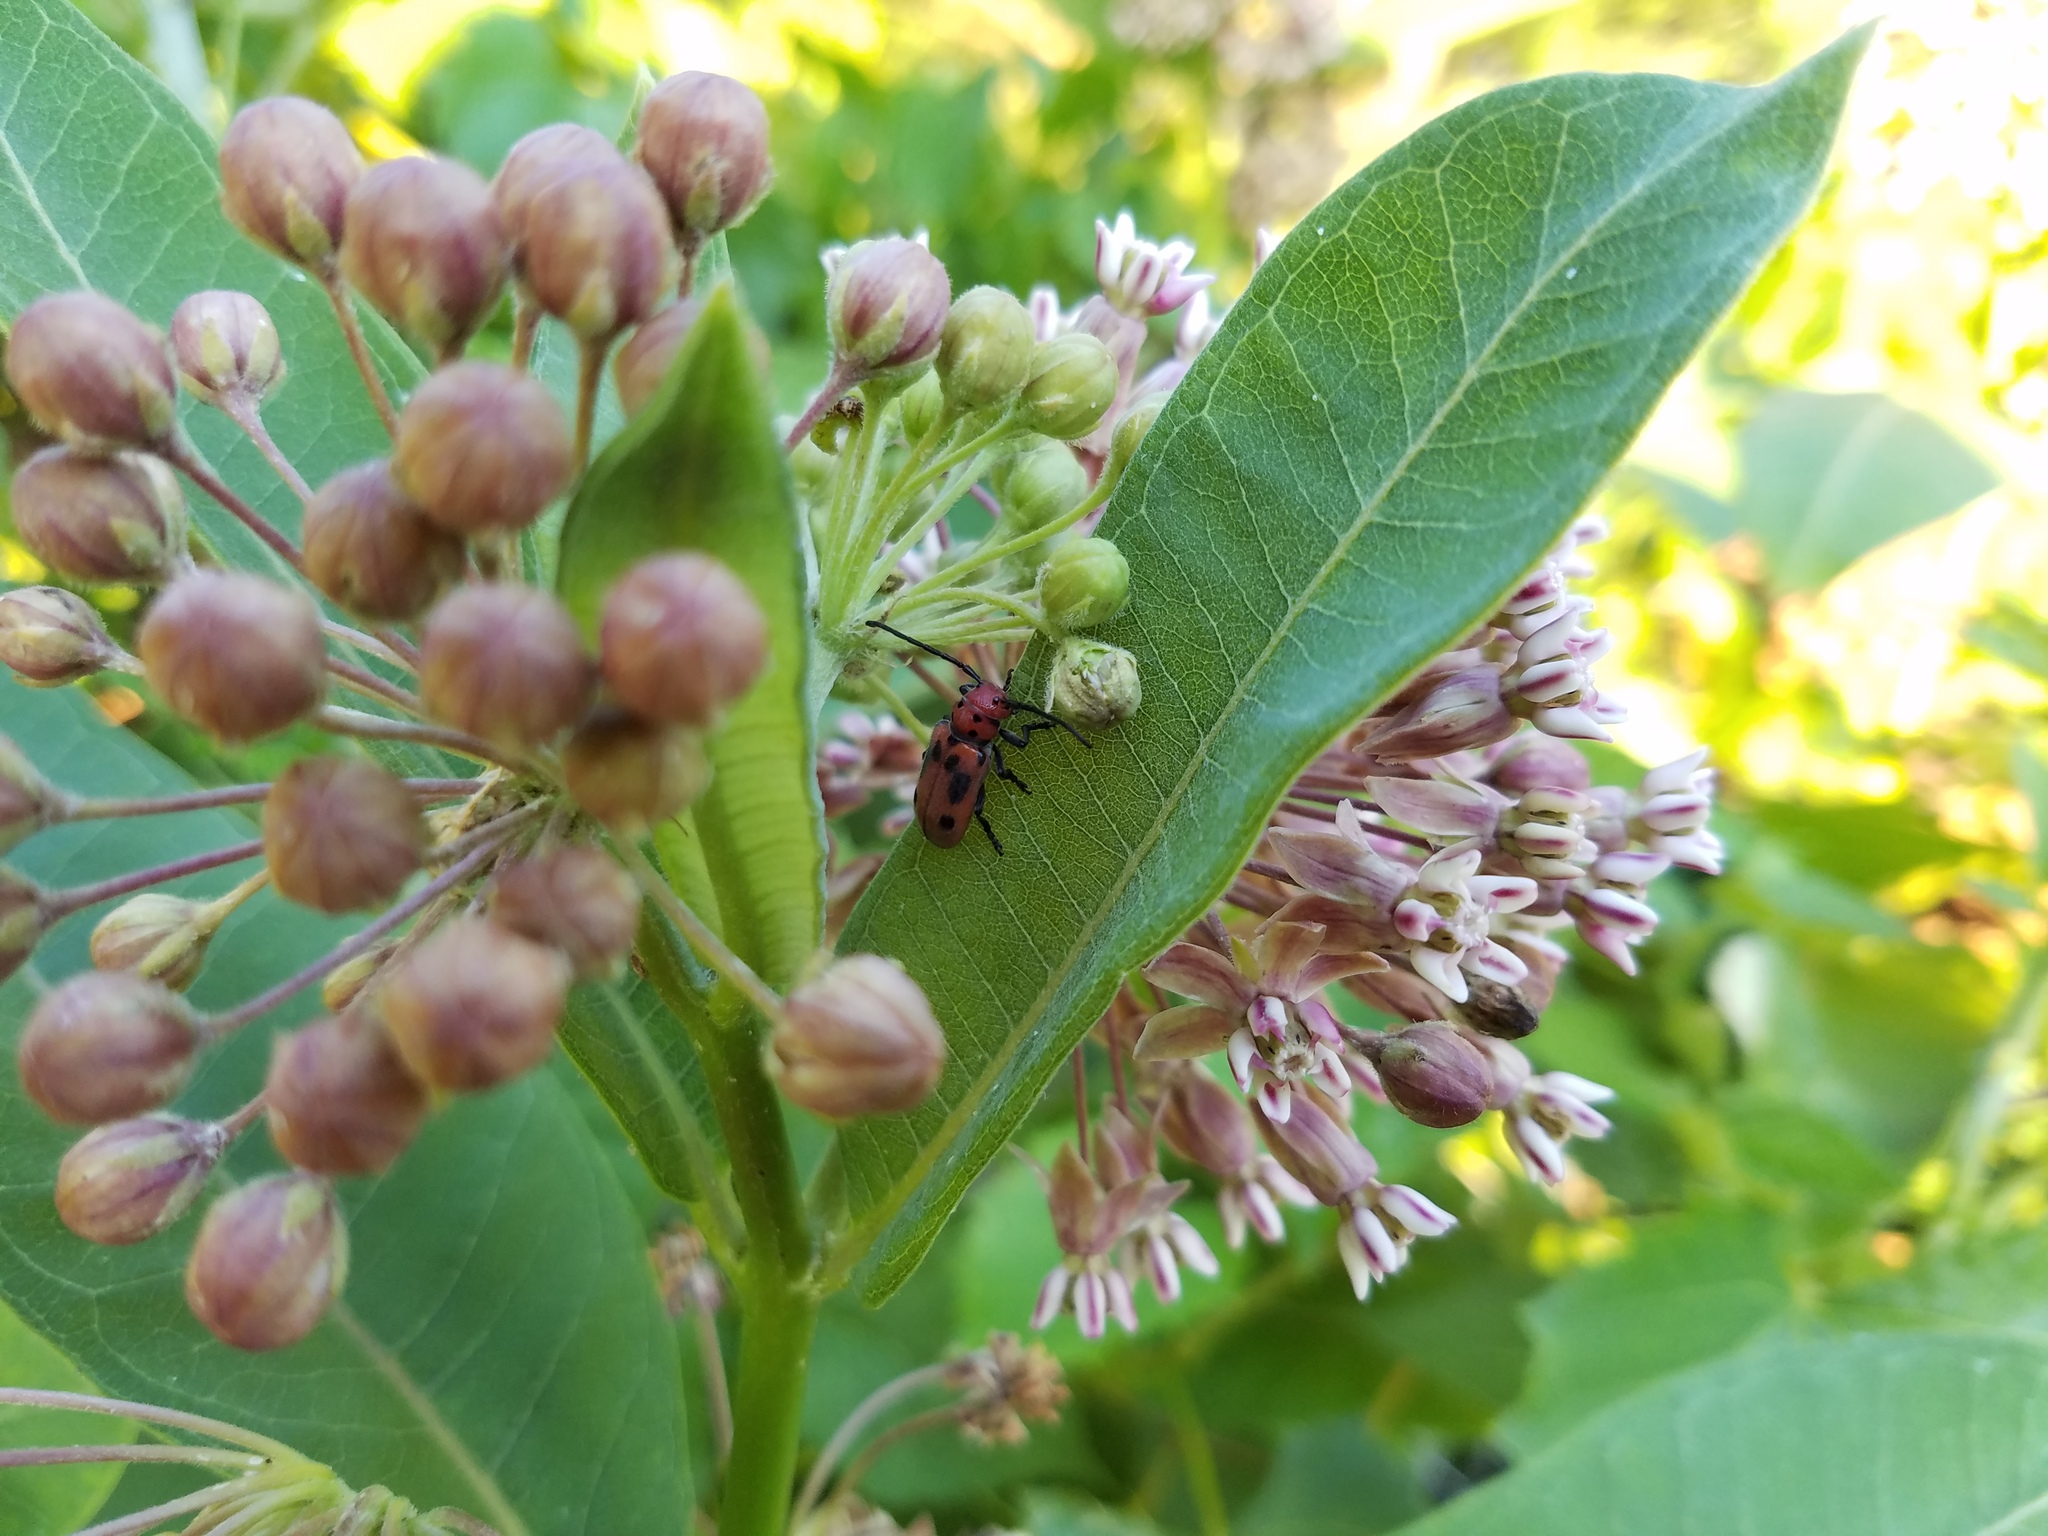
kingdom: Animalia
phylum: Arthropoda
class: Insecta
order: Coleoptera
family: Cerambycidae
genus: Tetraopes
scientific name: Tetraopes tetrophthalmus
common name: Red milkweed beetle
